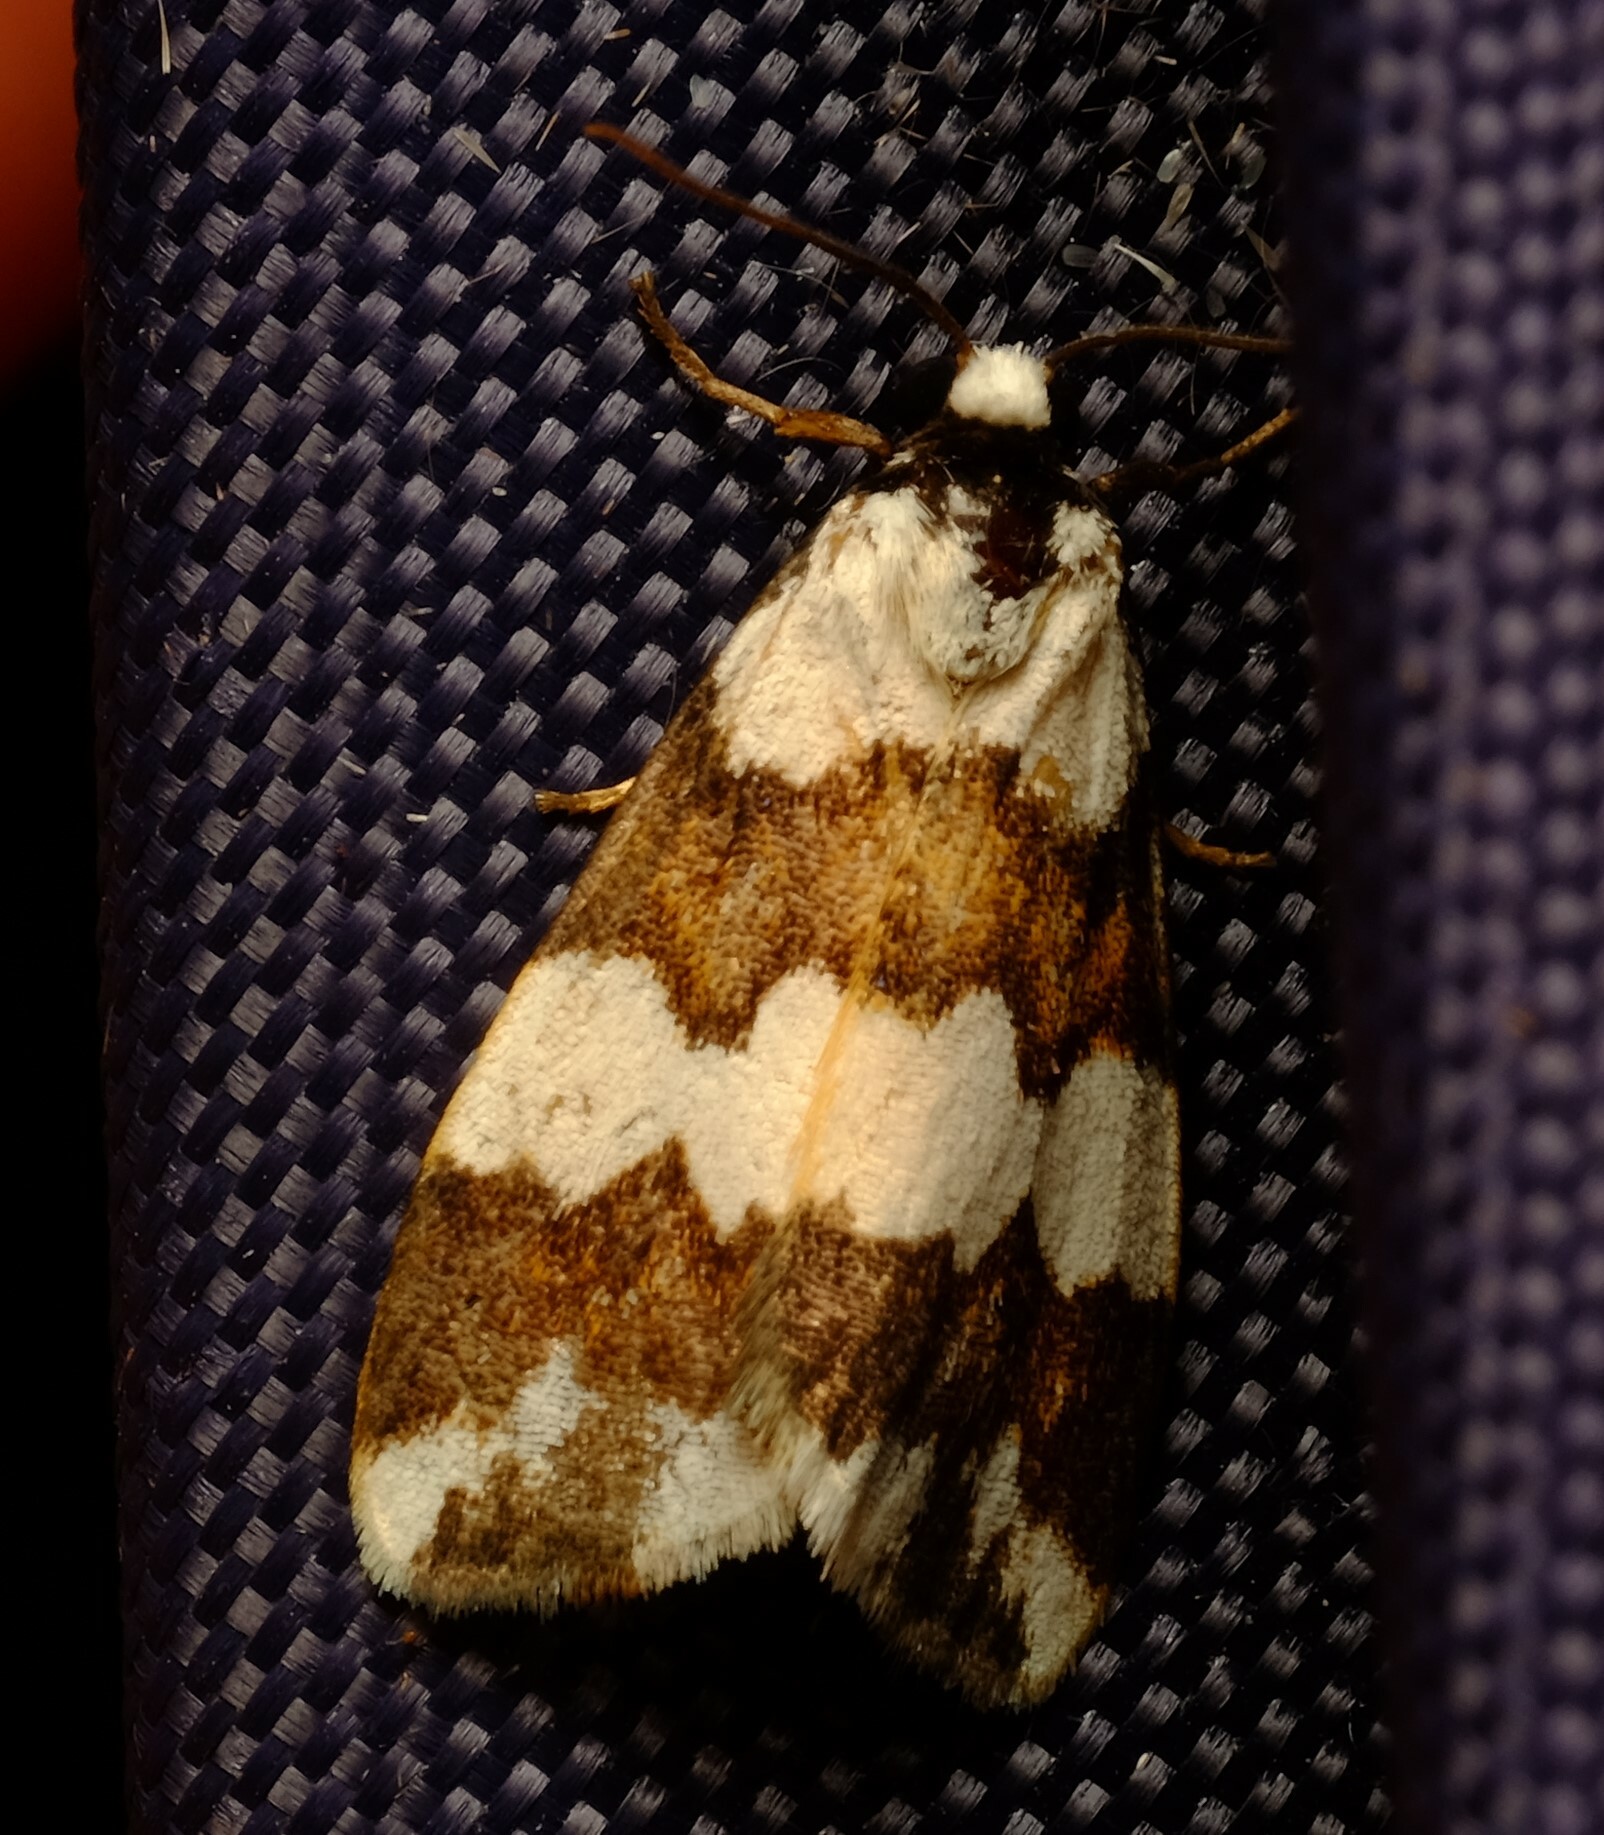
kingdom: Animalia
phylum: Arthropoda
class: Insecta
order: Lepidoptera
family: Erebidae
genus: Termessa
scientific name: Termessa gratiosa
